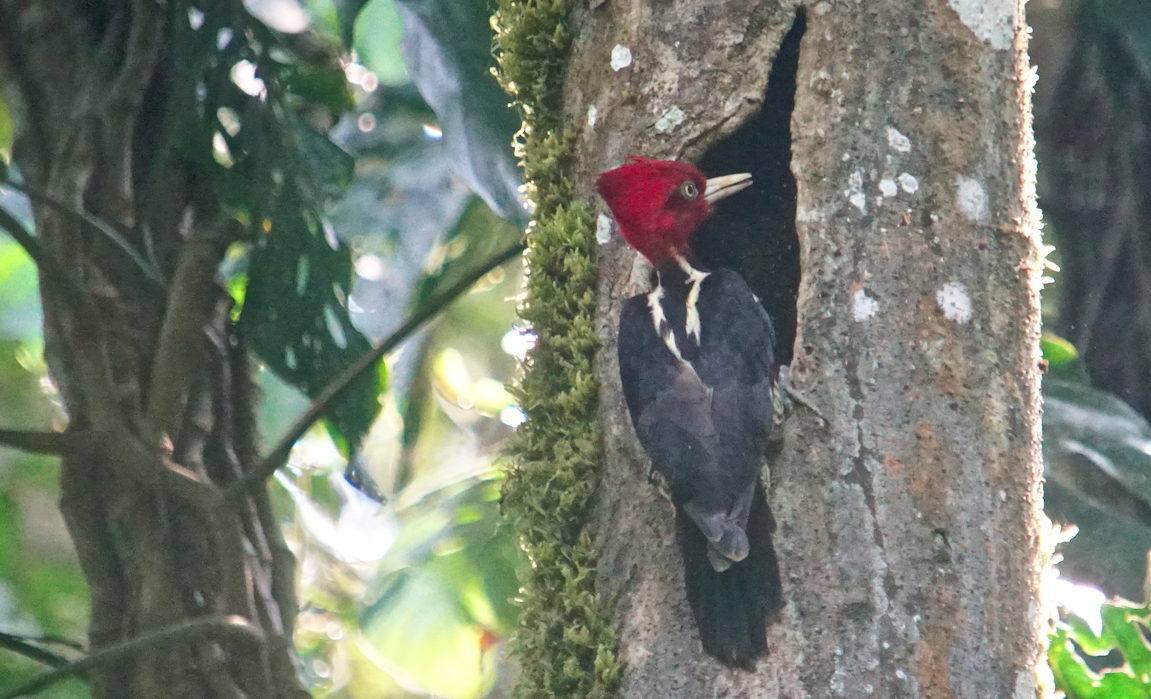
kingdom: Animalia
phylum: Chordata
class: Aves
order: Piciformes
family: Picidae
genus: Campephilus
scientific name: Campephilus guatemalensis
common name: Pale-billed woodpecker
